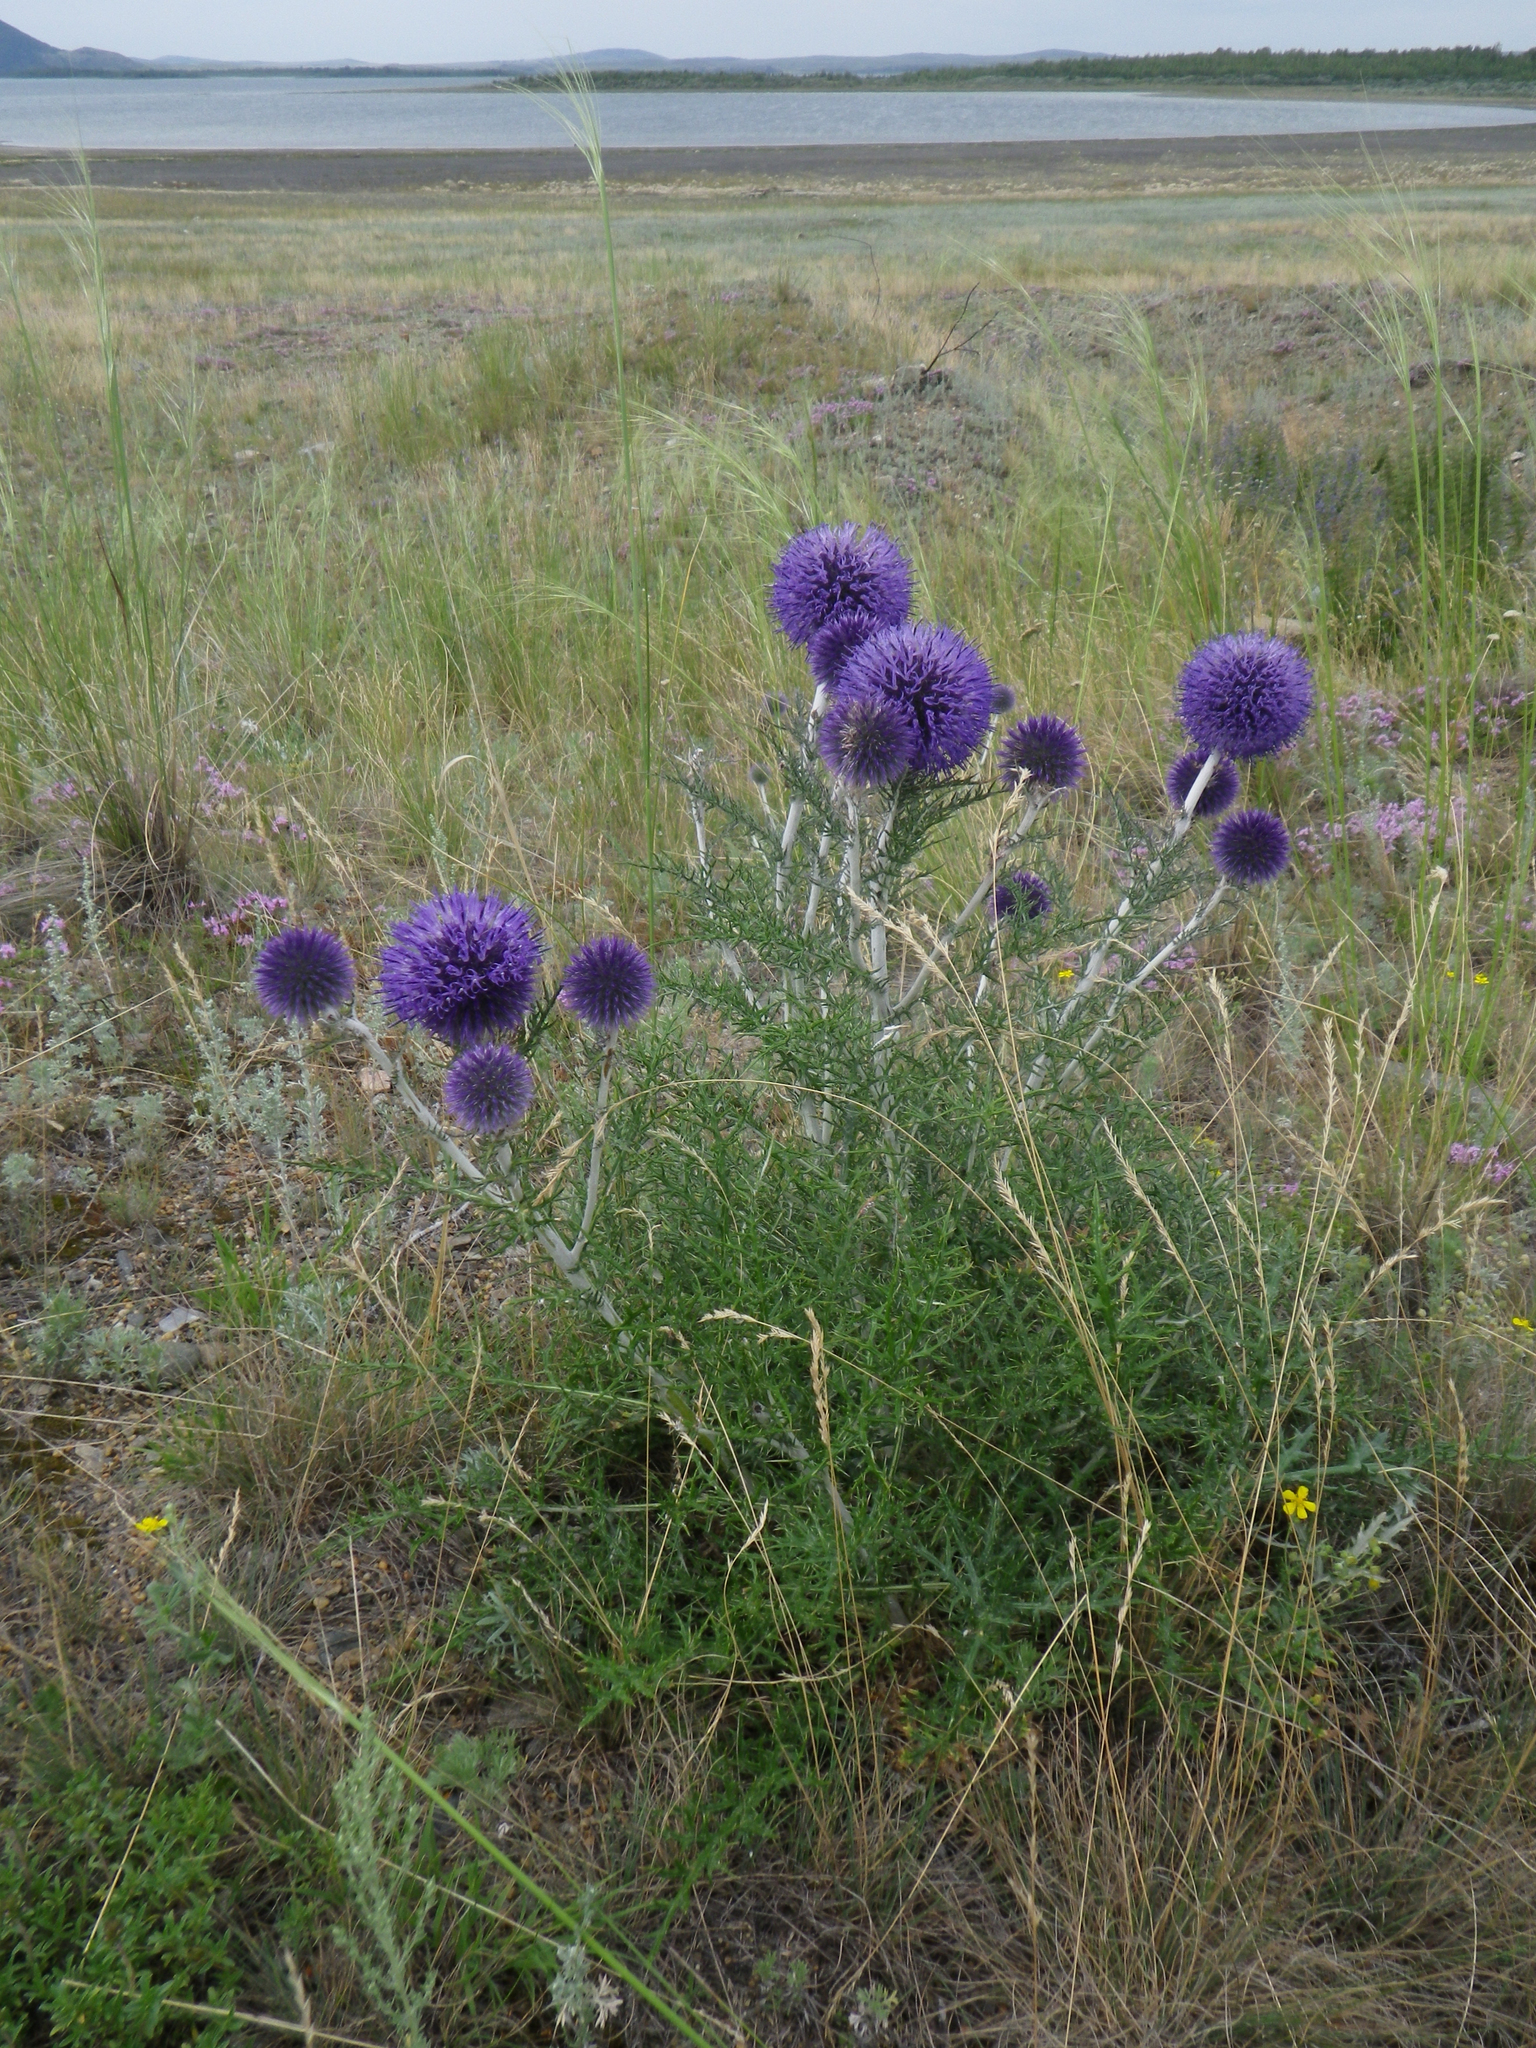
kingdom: Plantae
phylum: Tracheophyta
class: Magnoliopsida
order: Asterales
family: Asteraceae
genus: Echinops
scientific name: Echinops ritro
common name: Globe thistle
